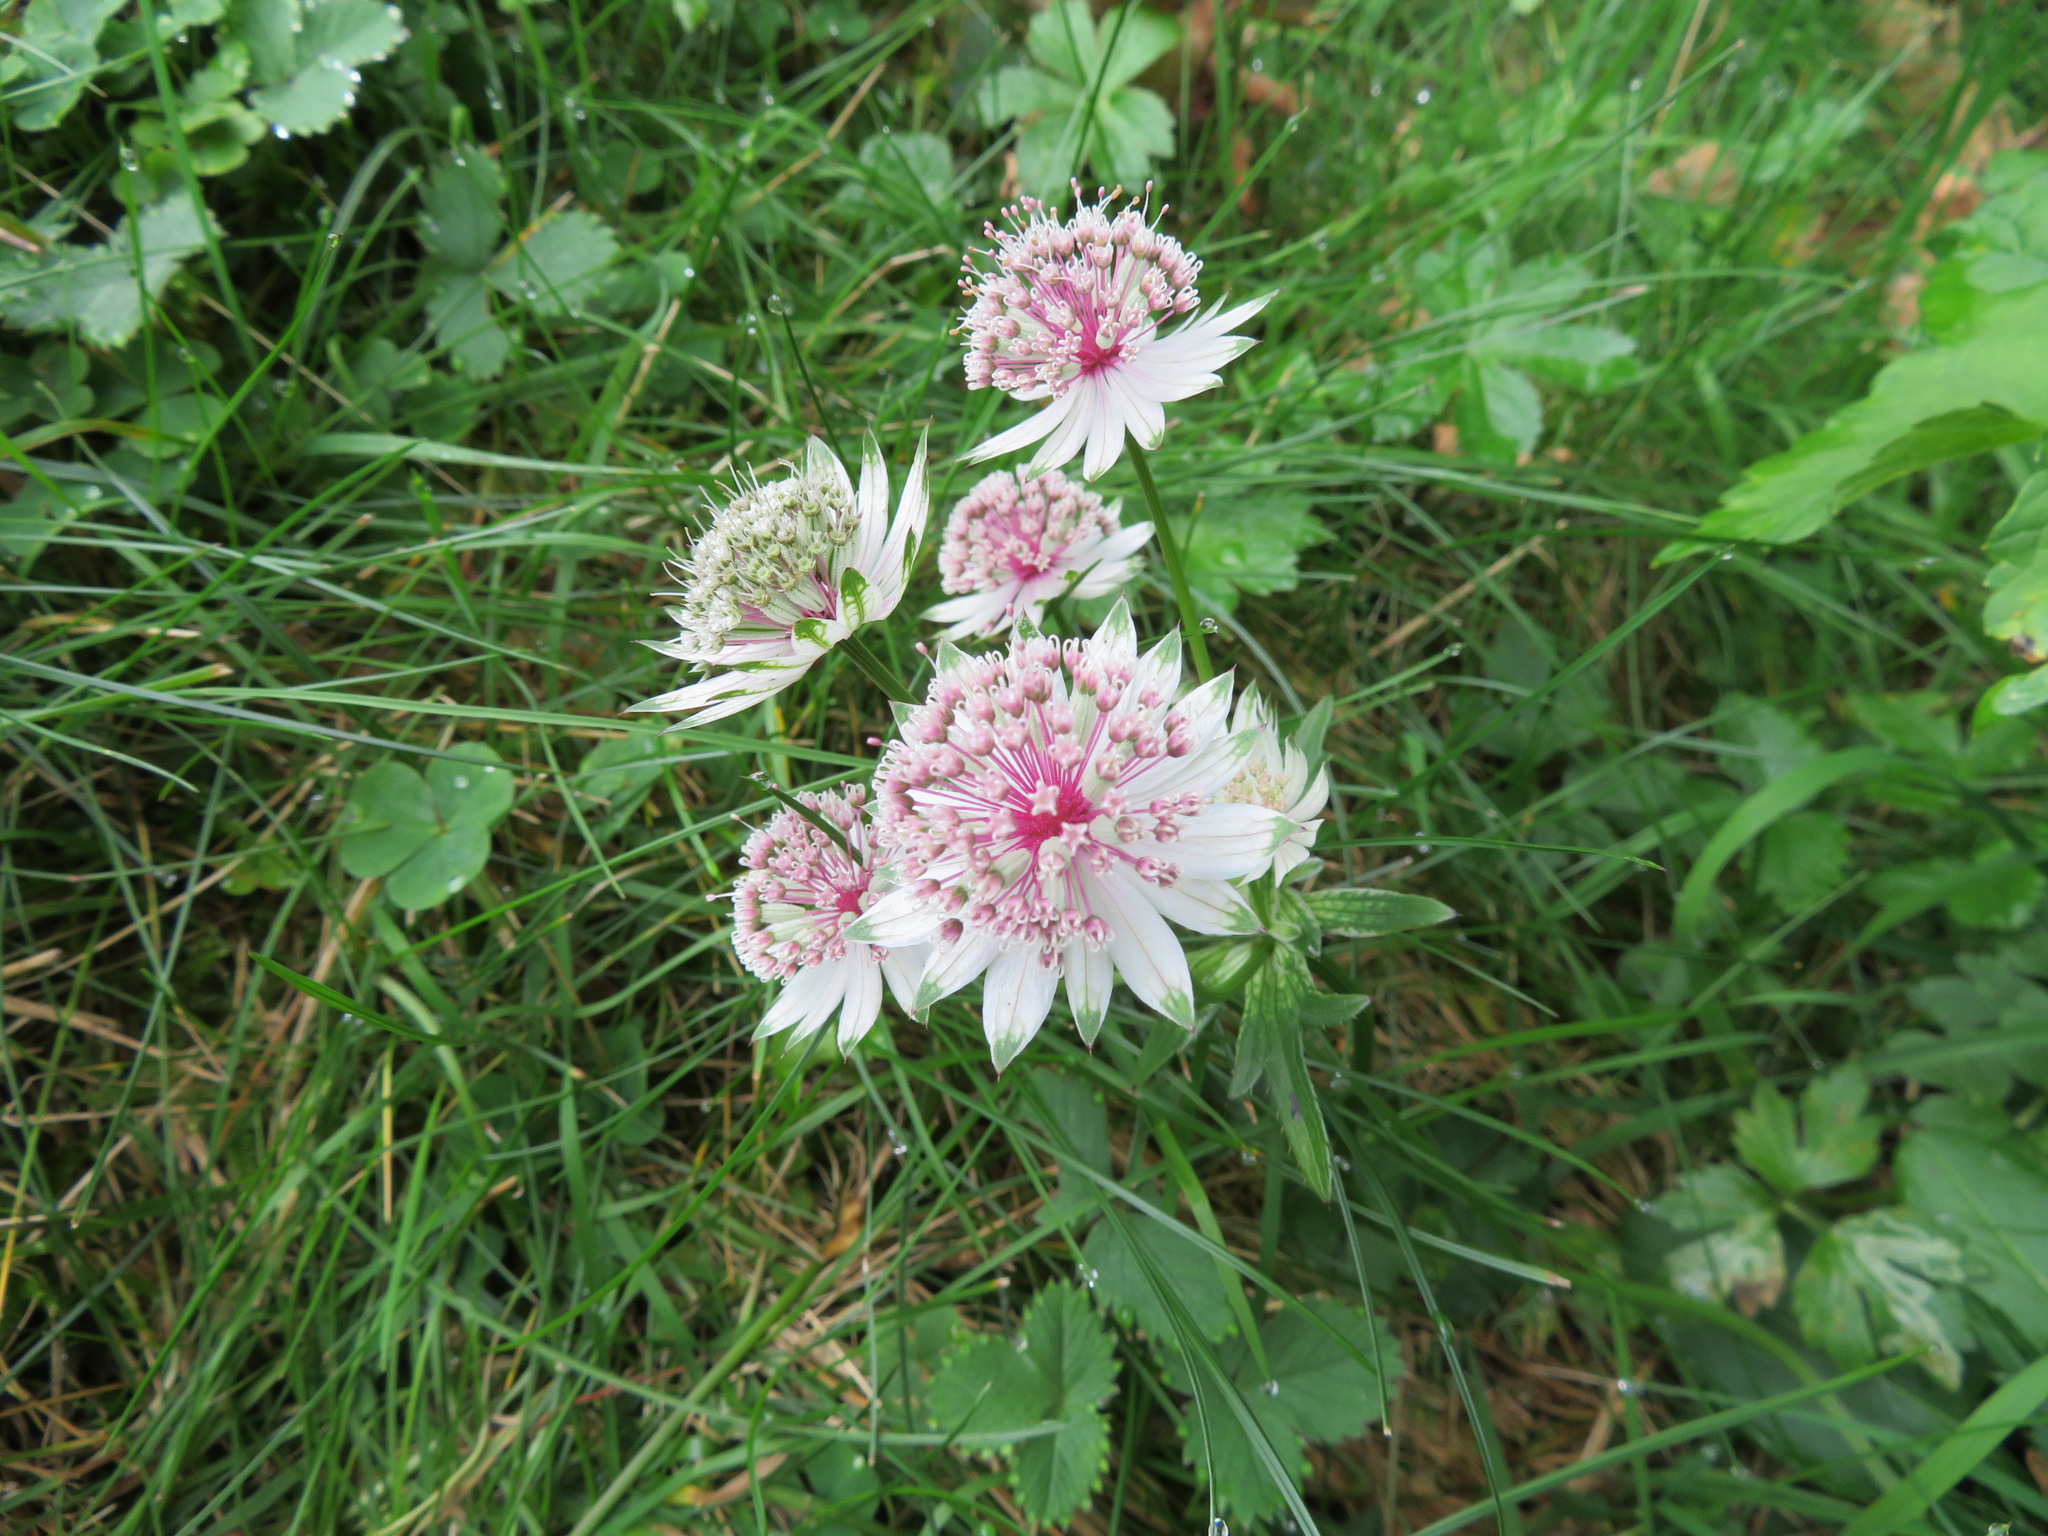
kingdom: Plantae
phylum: Tracheophyta
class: Magnoliopsida
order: Apiales
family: Apiaceae
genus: Astrantia
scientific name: Astrantia major
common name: Greater masterwort
